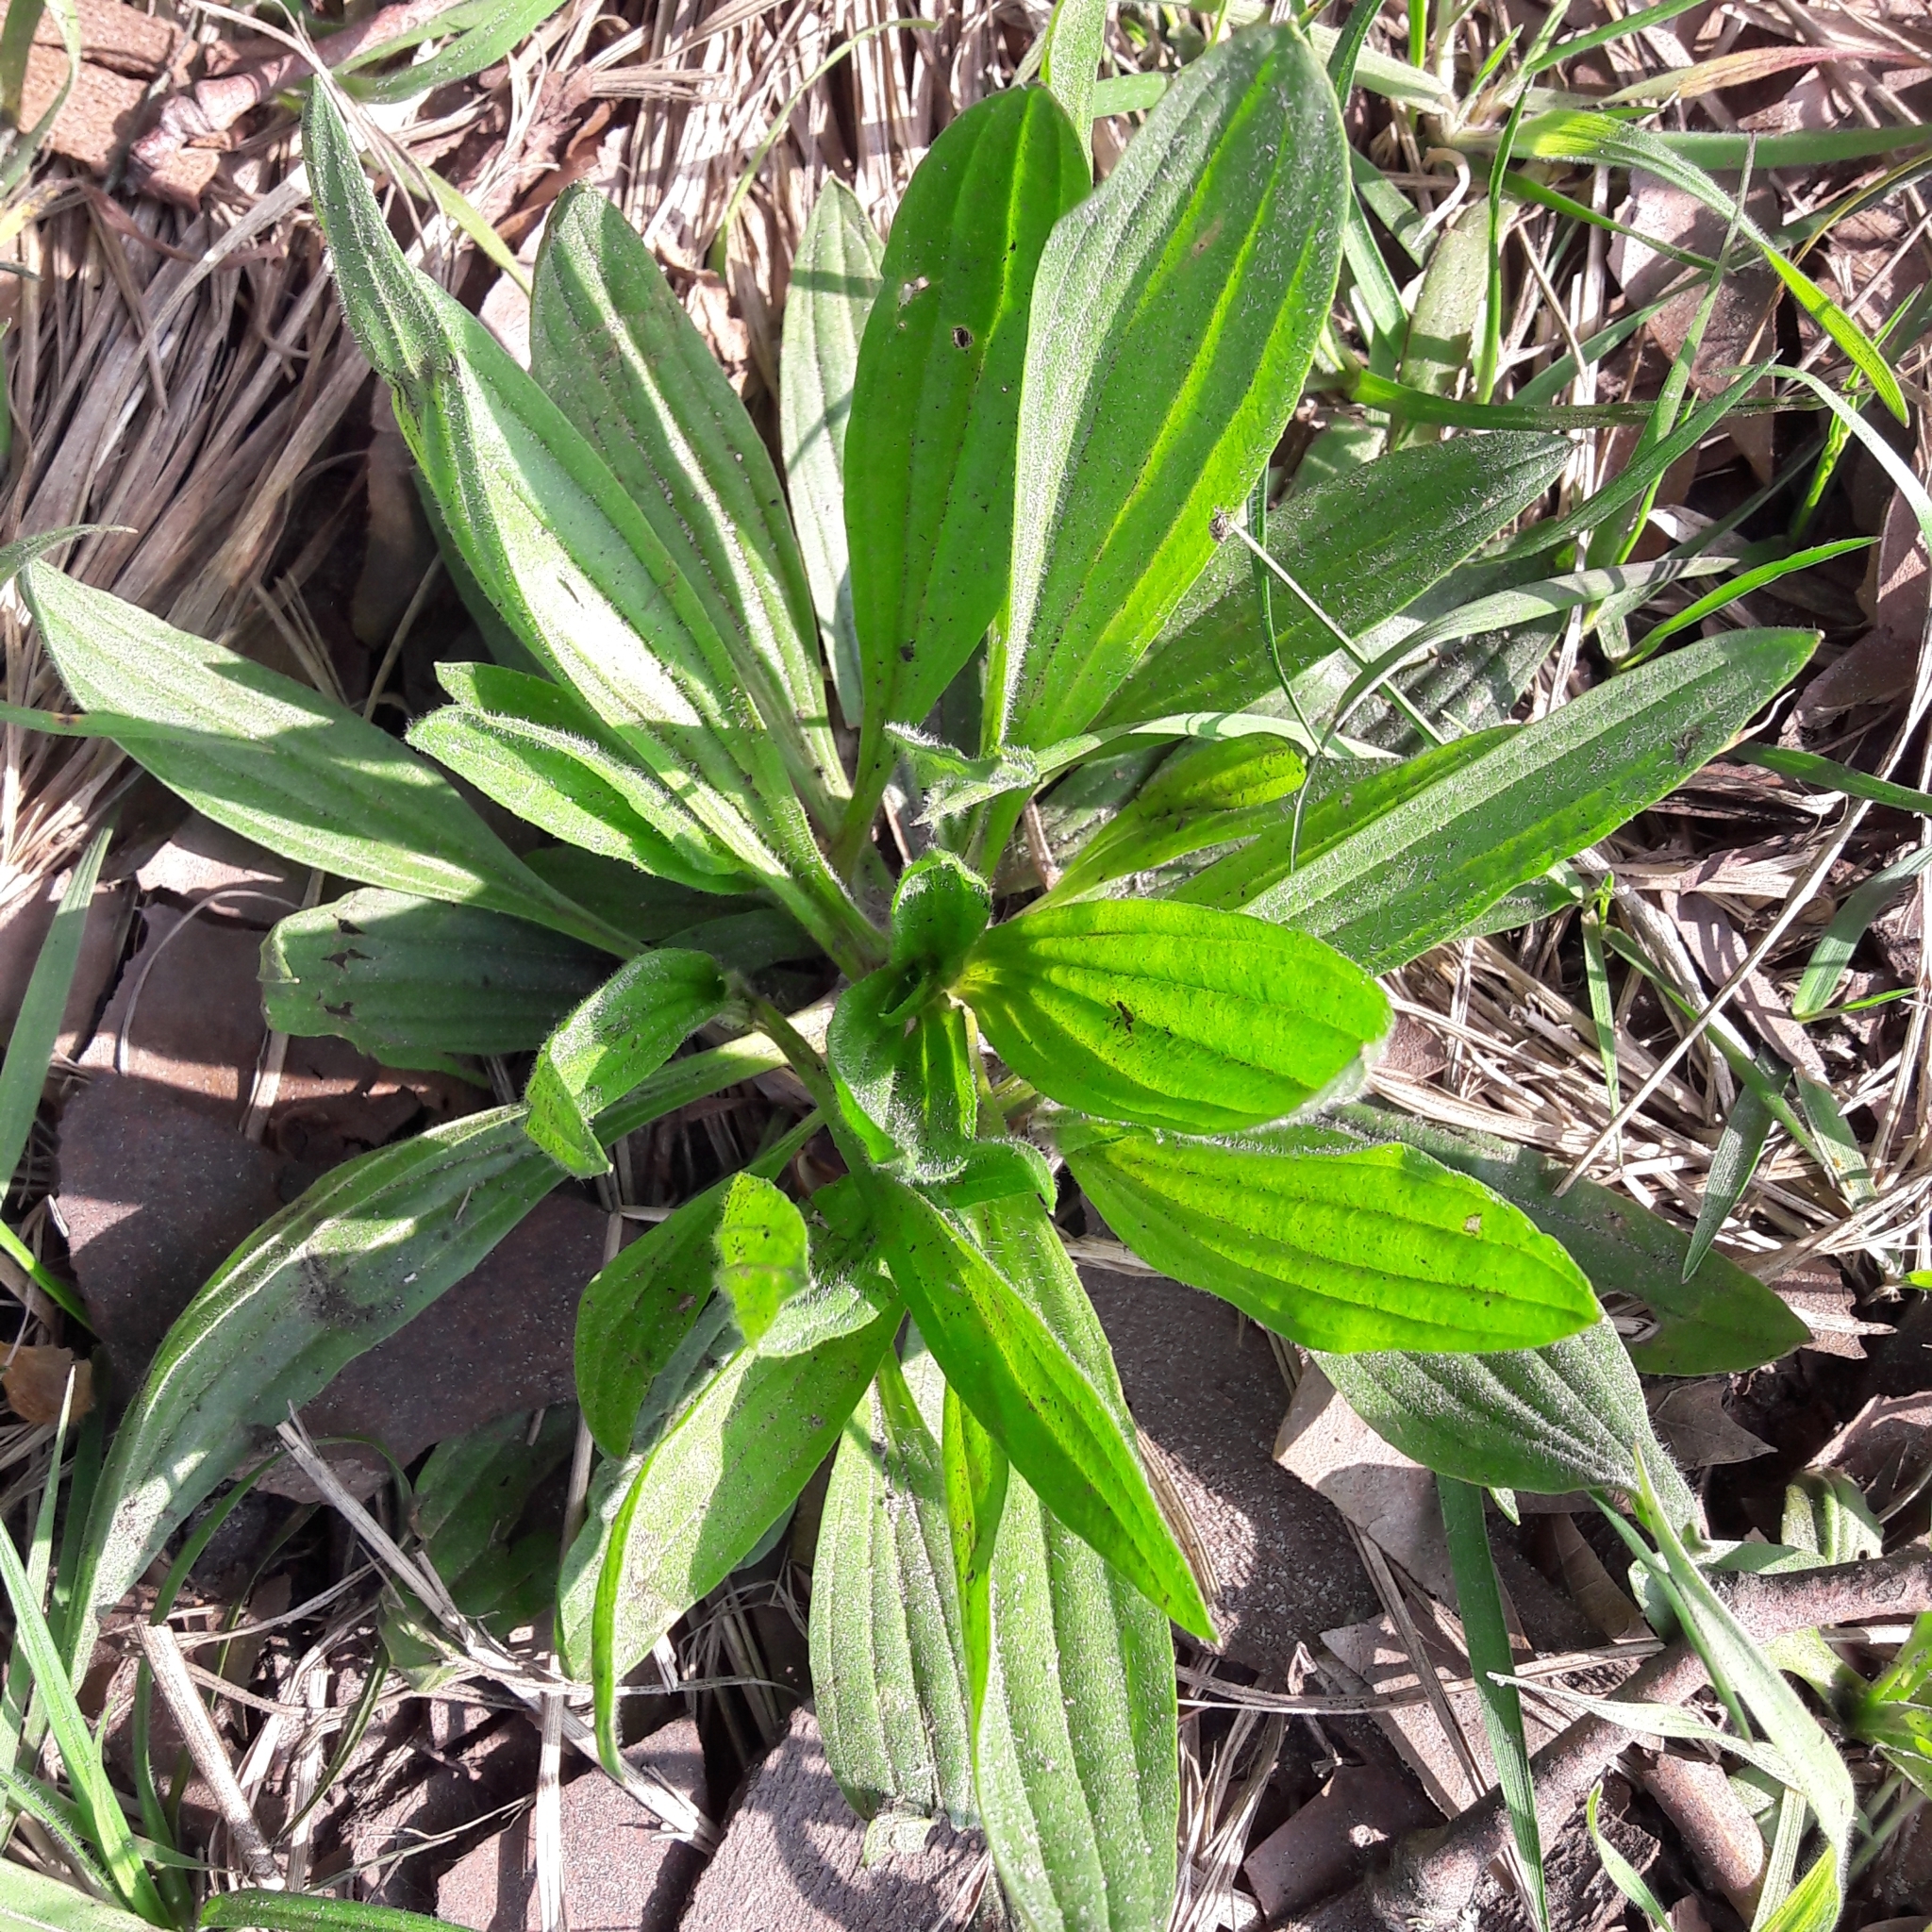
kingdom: Plantae
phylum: Tracheophyta
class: Magnoliopsida
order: Lamiales
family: Plantaginaceae
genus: Plantago
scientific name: Plantago lanceolata
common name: Ribwort plantain
